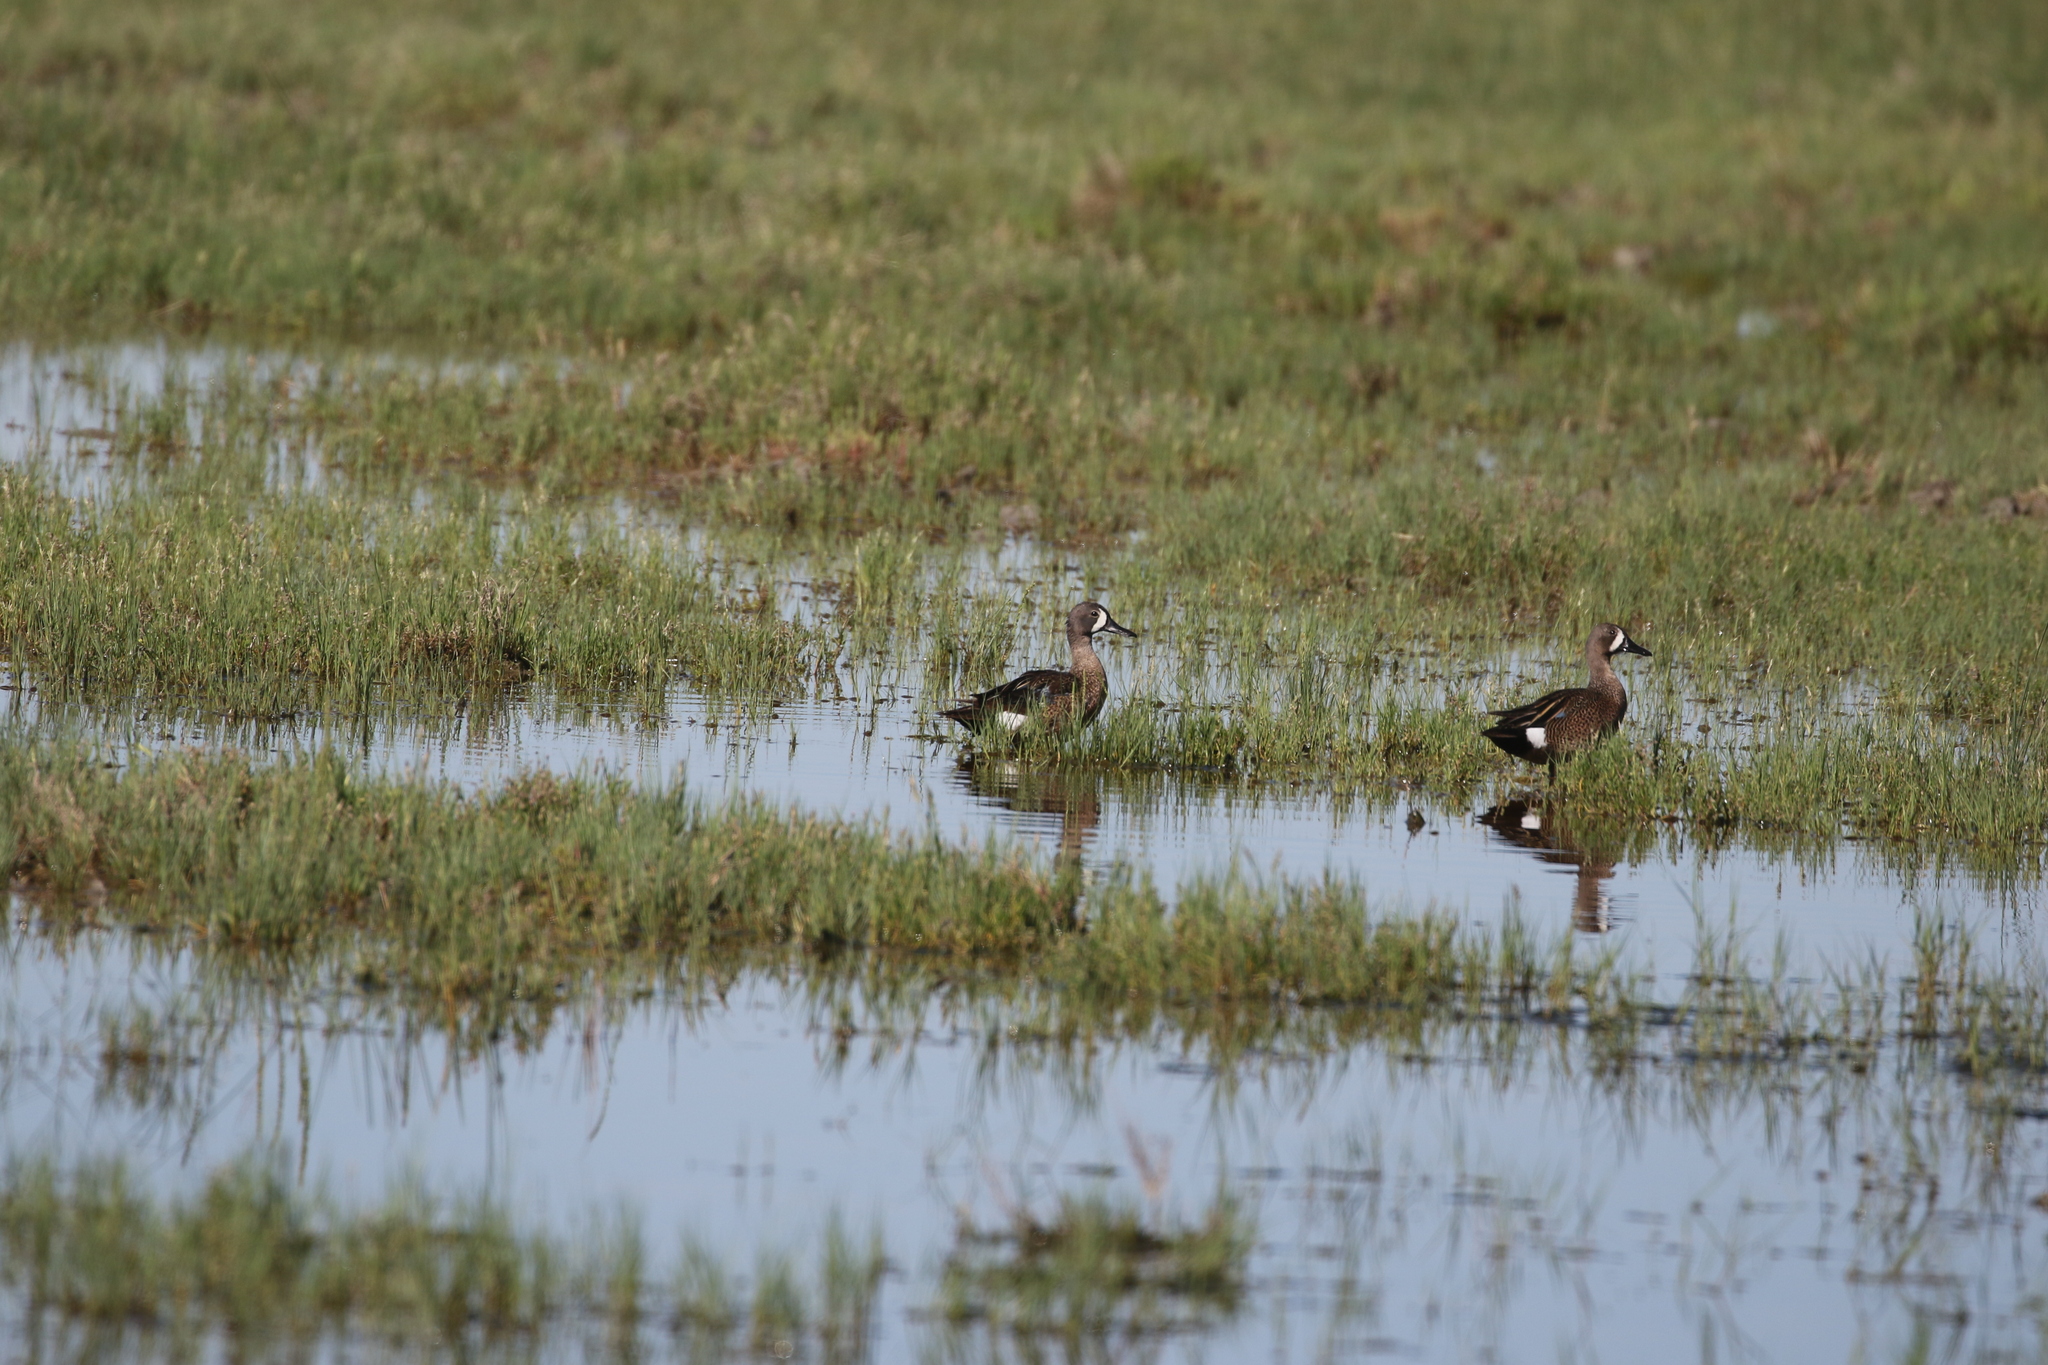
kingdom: Animalia
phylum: Chordata
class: Aves
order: Anseriformes
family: Anatidae
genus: Spatula
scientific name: Spatula discors
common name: Blue-winged teal
